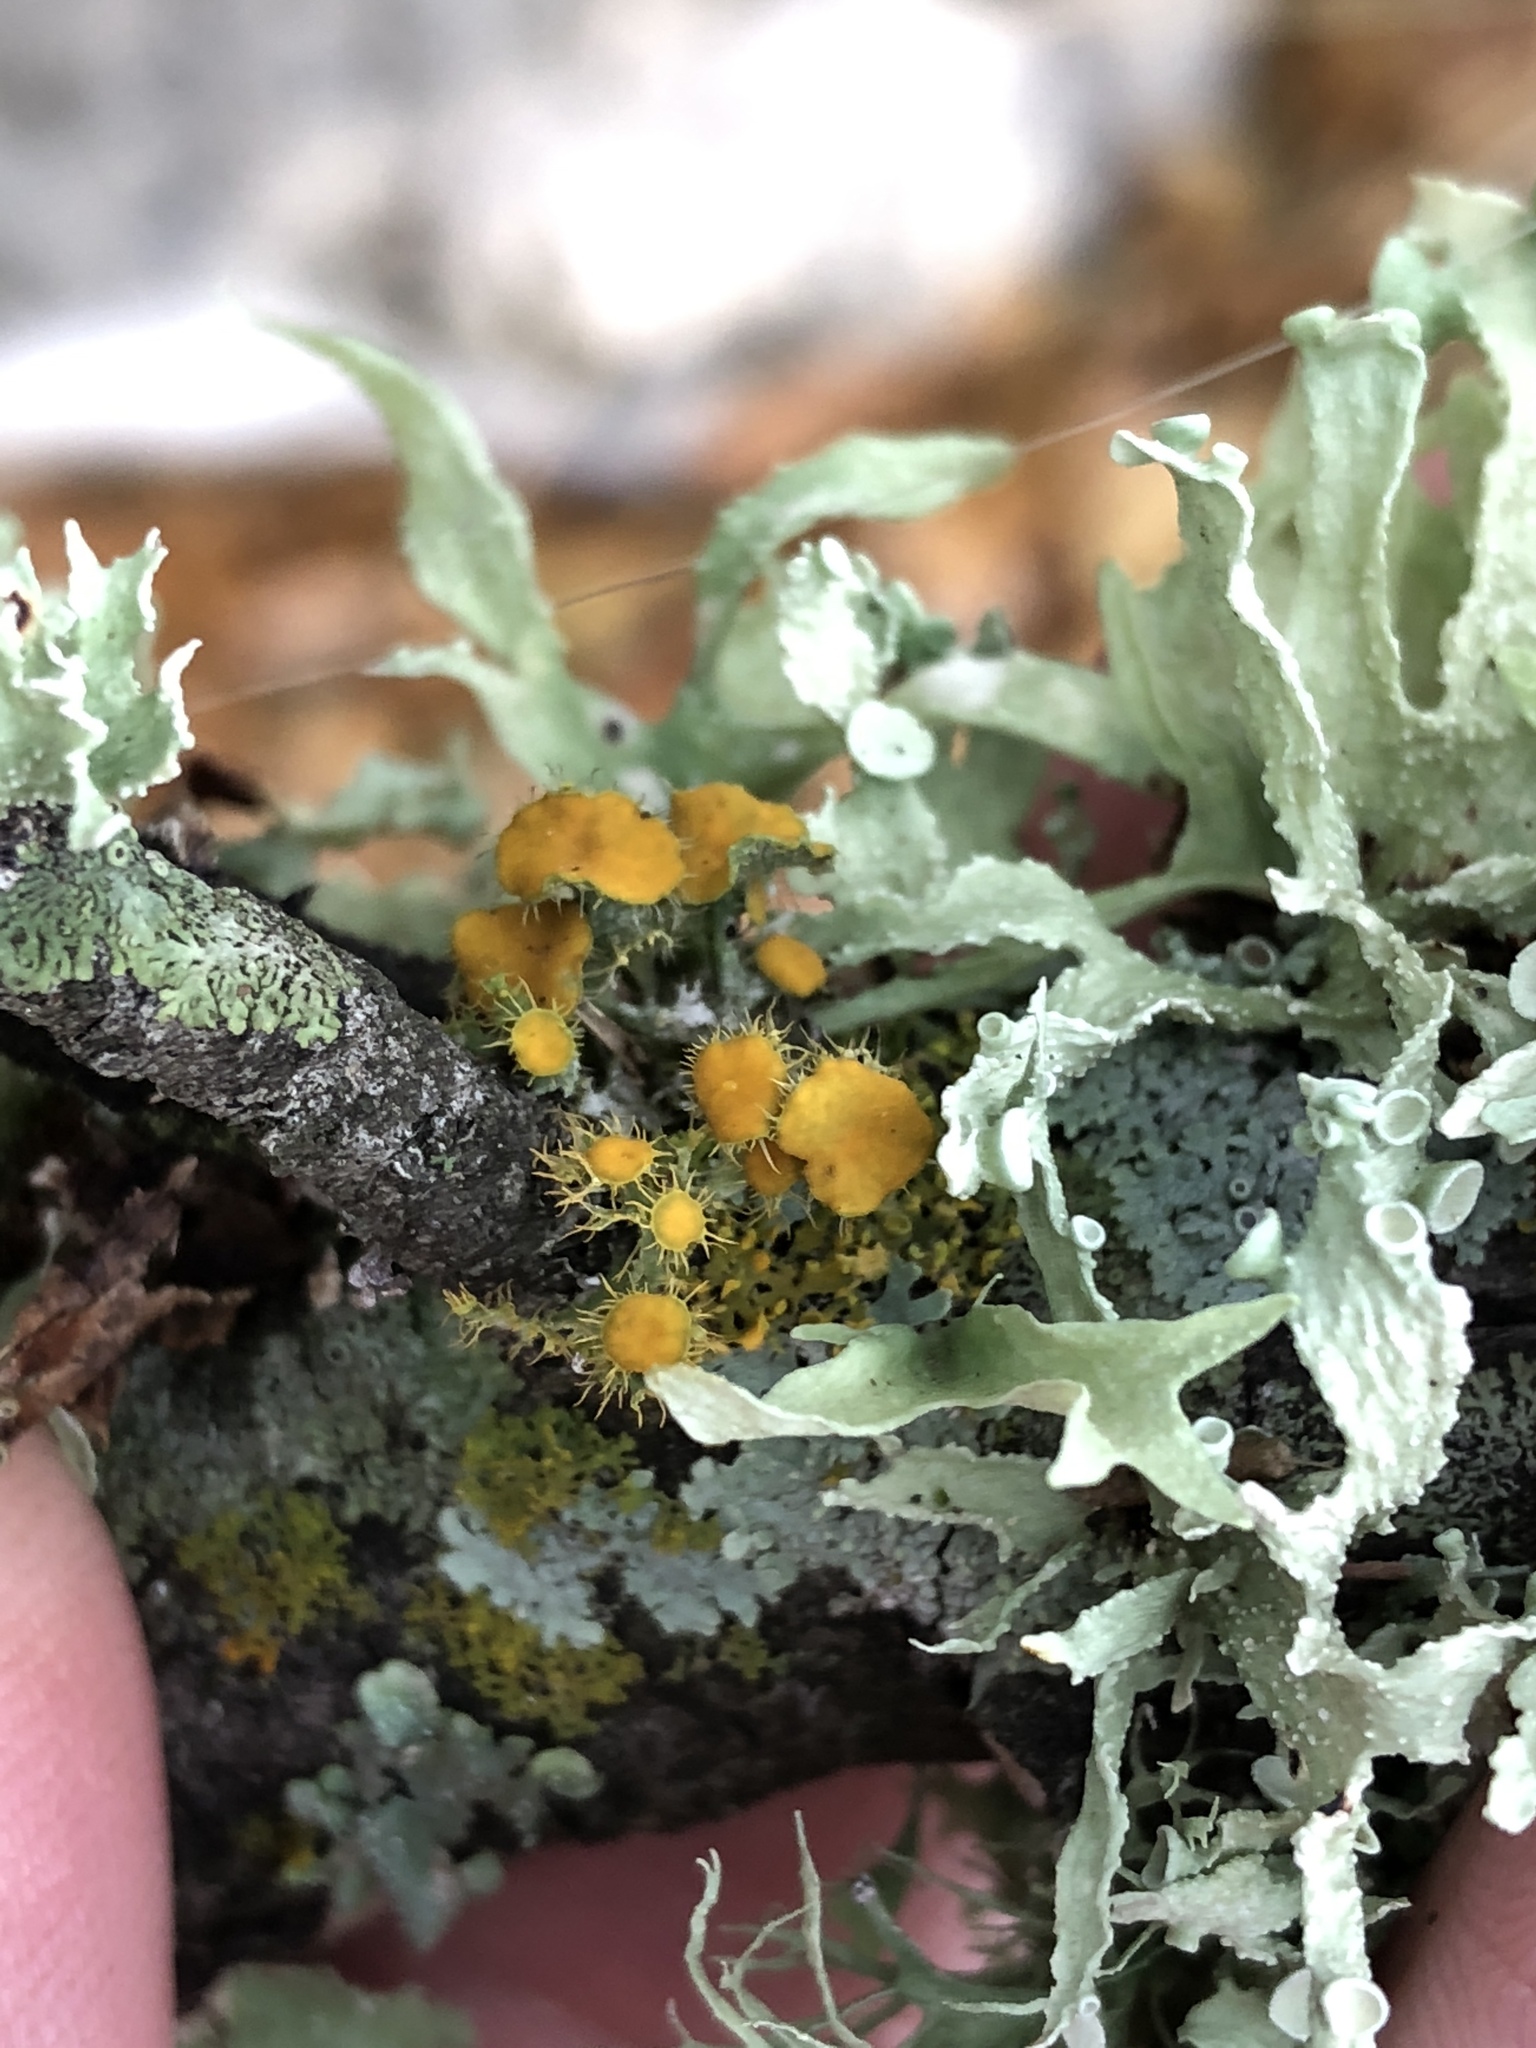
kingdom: Fungi
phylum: Ascomycota
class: Lecanoromycetes
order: Teloschistales
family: Teloschistaceae
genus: Niorma
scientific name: Niorma chrysophthalma
